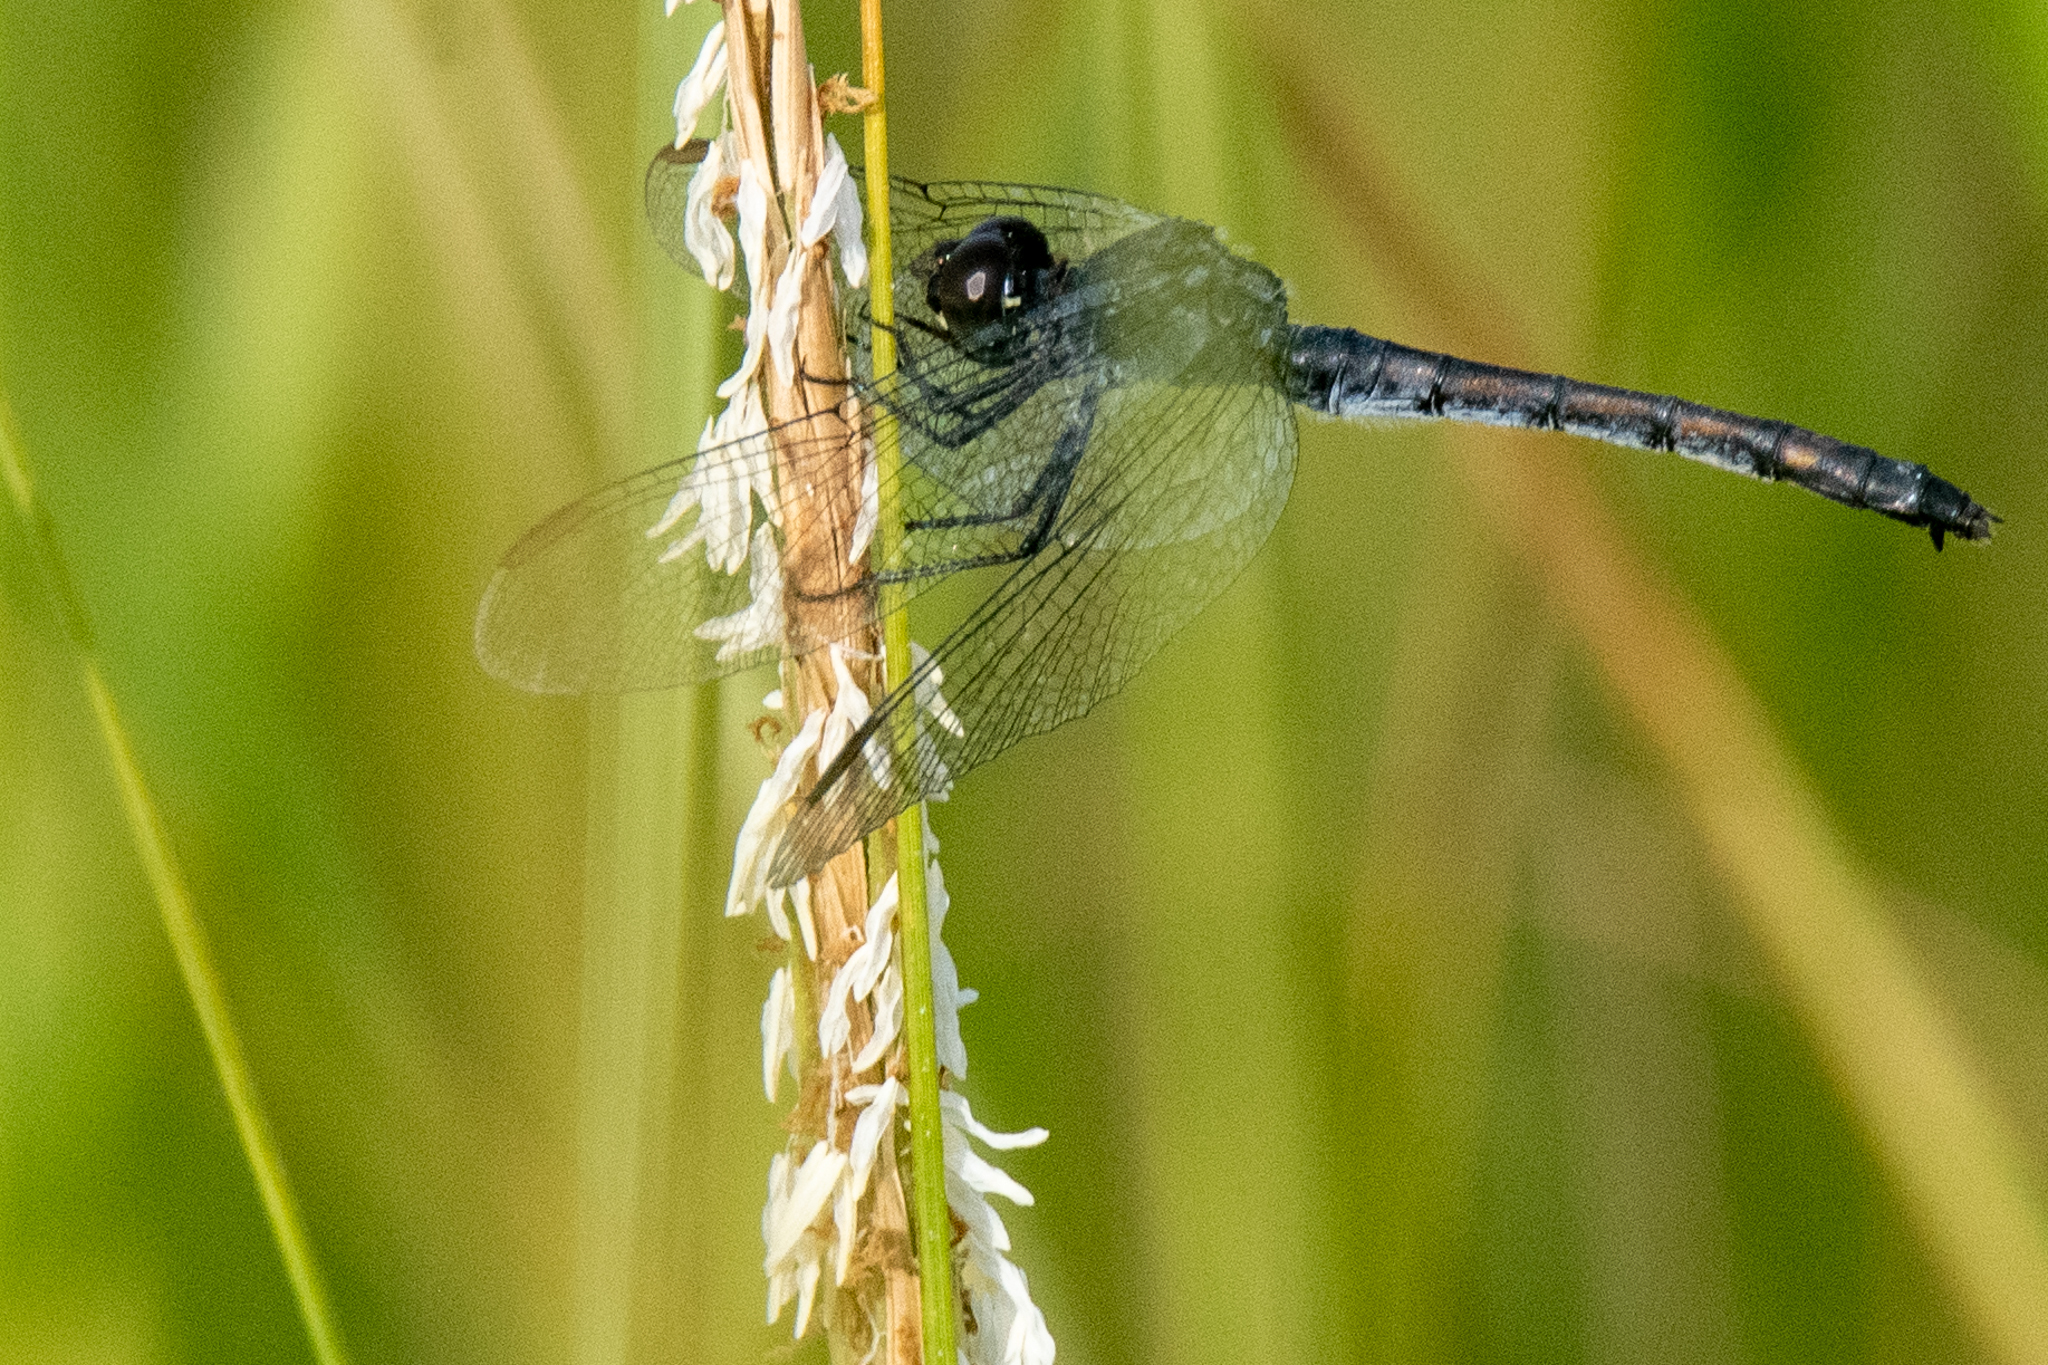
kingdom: Animalia
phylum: Arthropoda
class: Insecta
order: Odonata
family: Libellulidae
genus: Erythrodiplax
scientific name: Erythrodiplax berenice
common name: Seaside dragonlet
